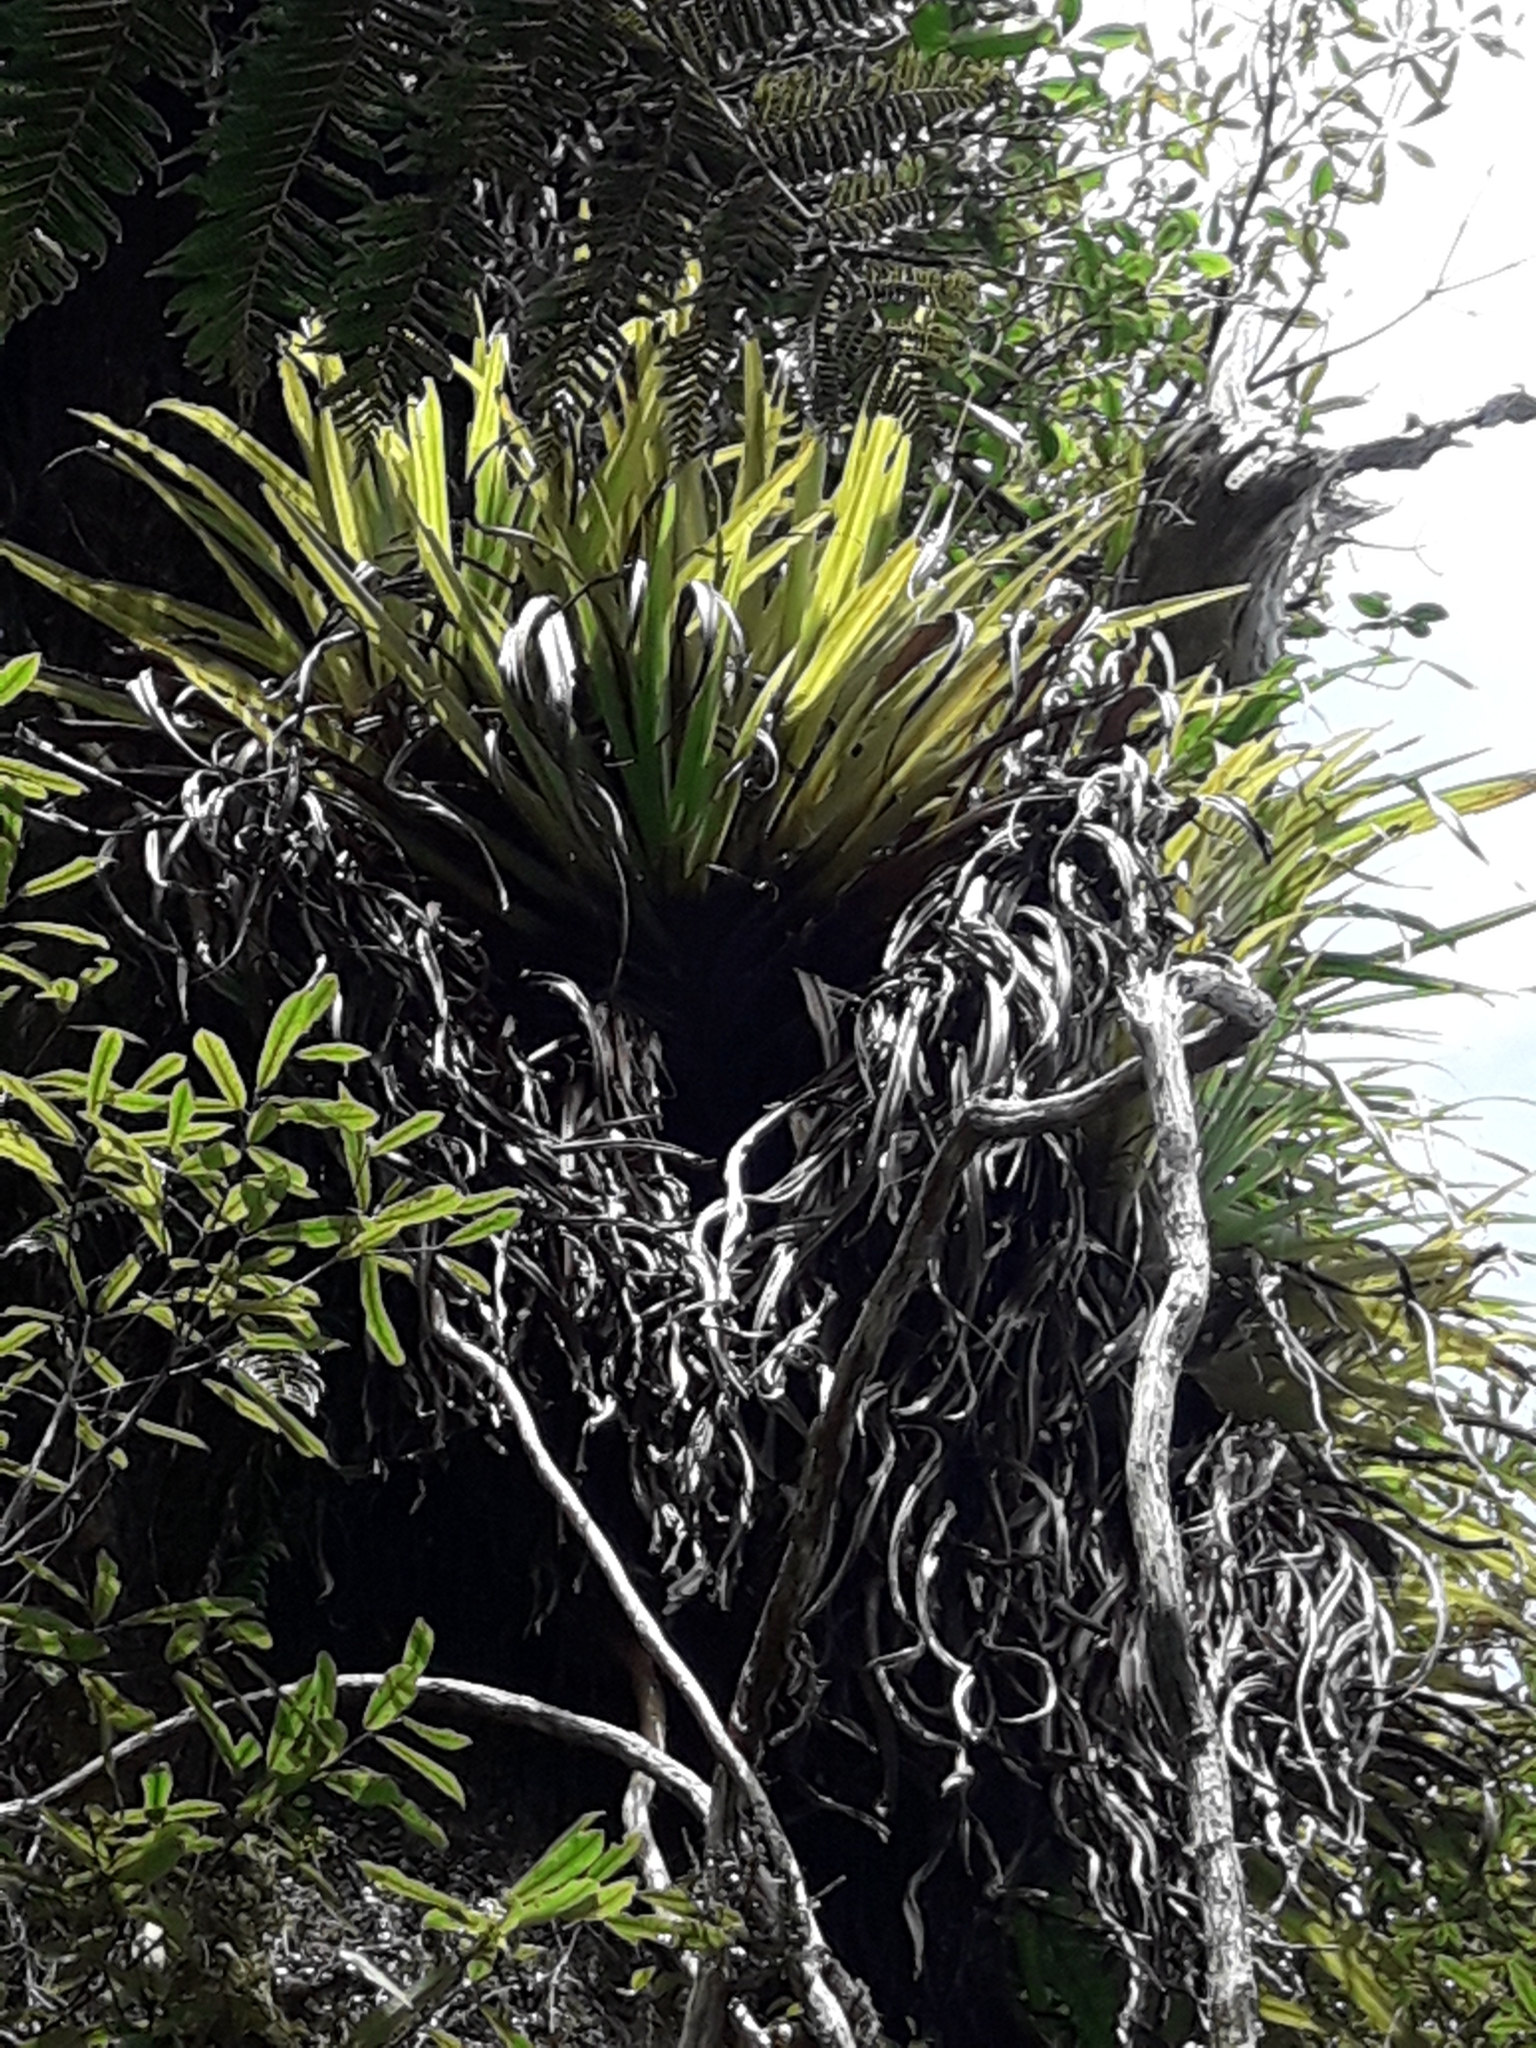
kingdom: Plantae
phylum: Tracheophyta
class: Liliopsida
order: Asparagales
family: Asteliaceae
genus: Astelia
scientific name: Astelia hastata
